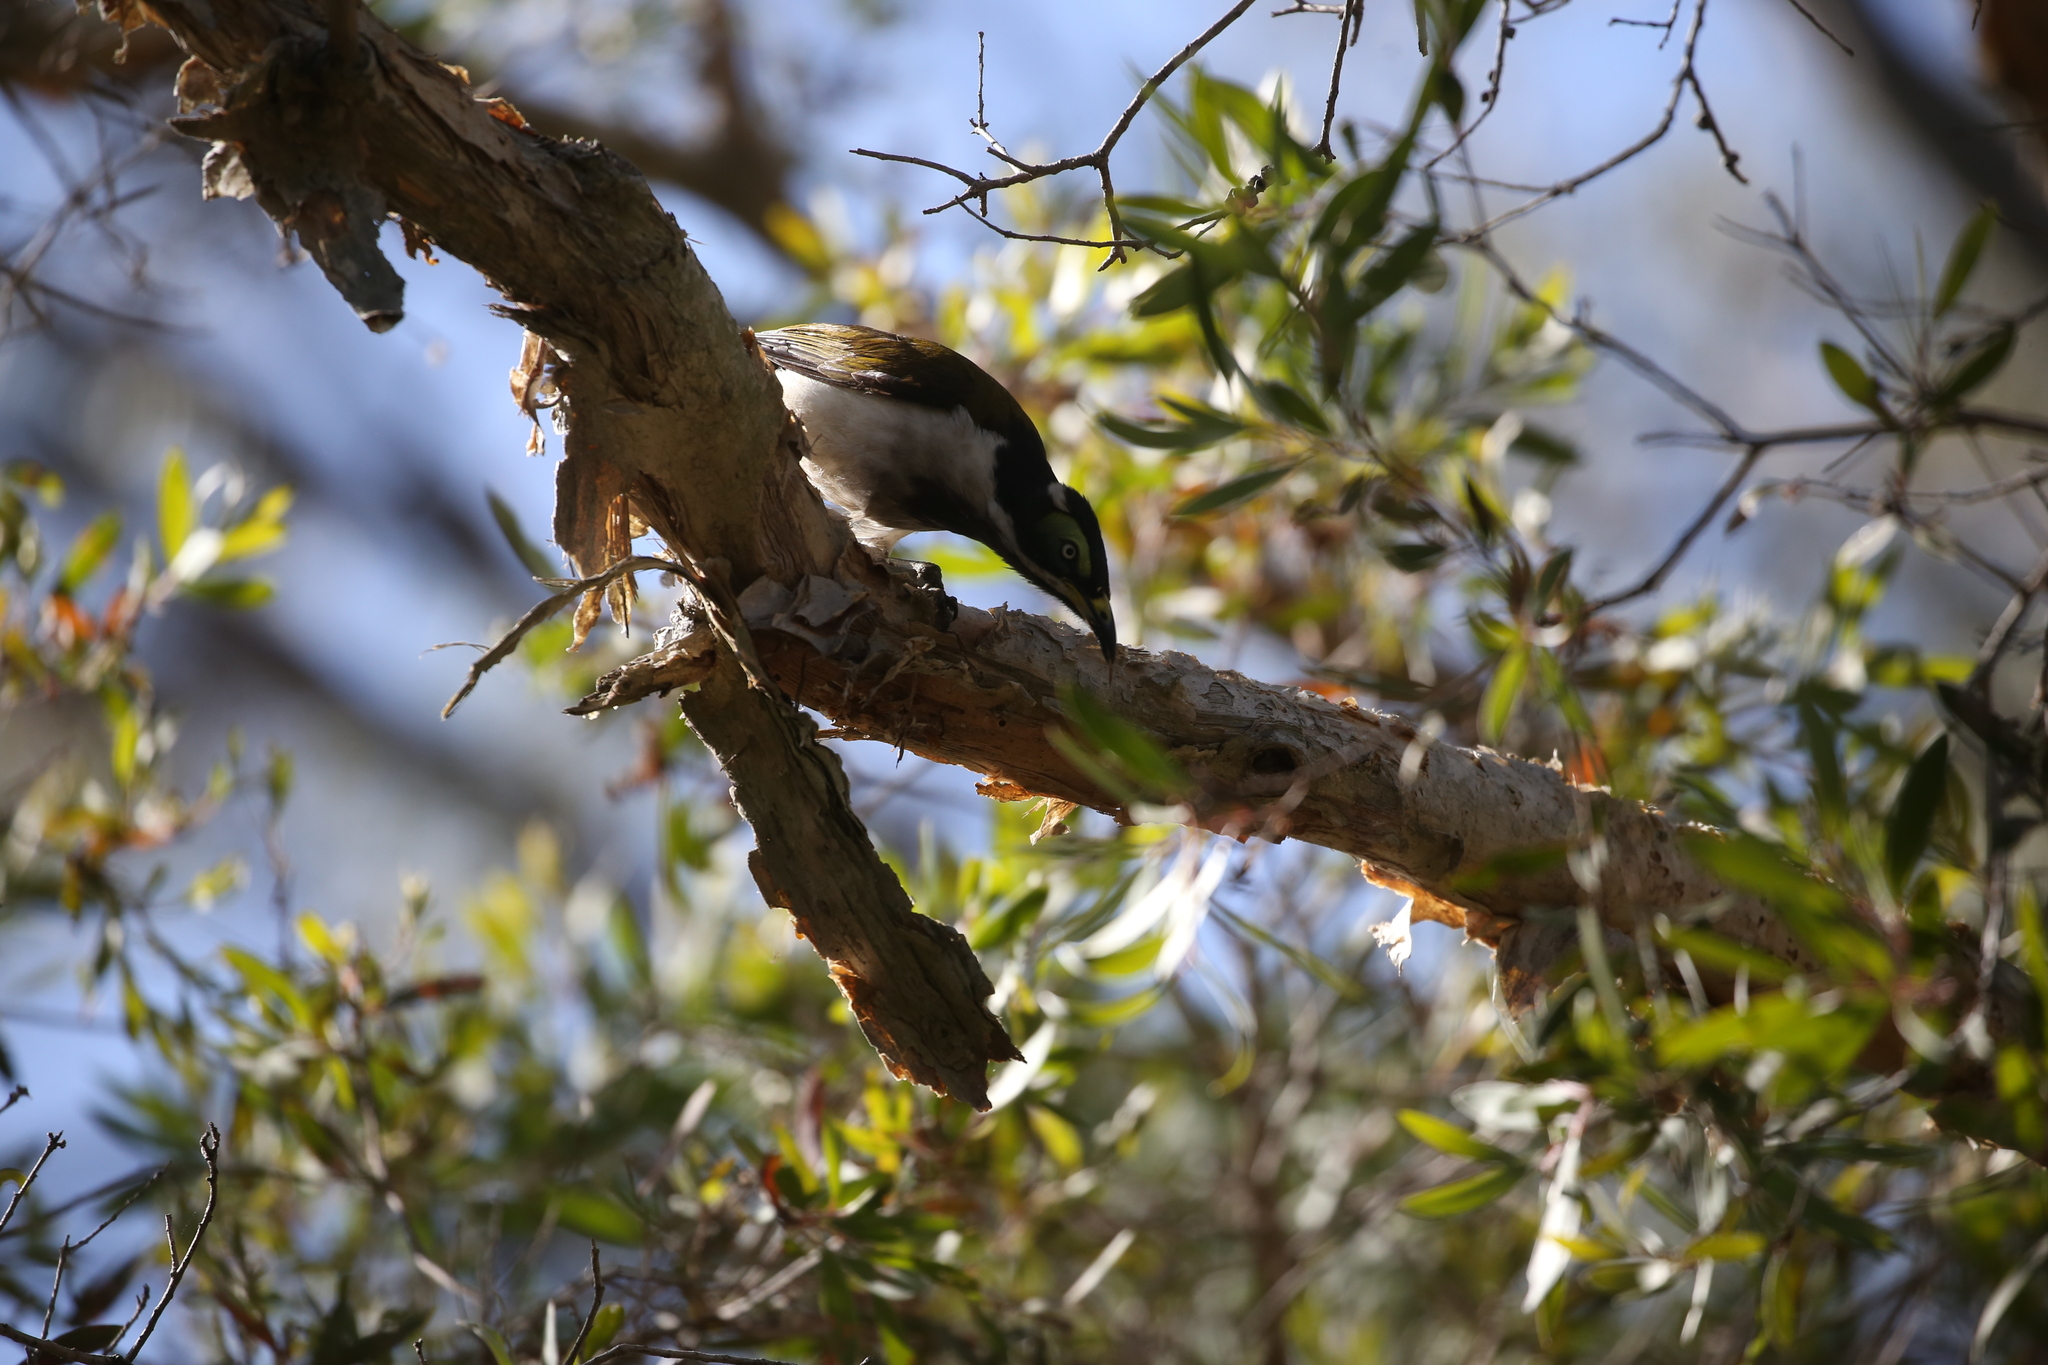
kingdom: Animalia
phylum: Chordata
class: Aves
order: Passeriformes
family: Meliphagidae
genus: Entomyzon
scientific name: Entomyzon cyanotis
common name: Blue-faced honeyeater
